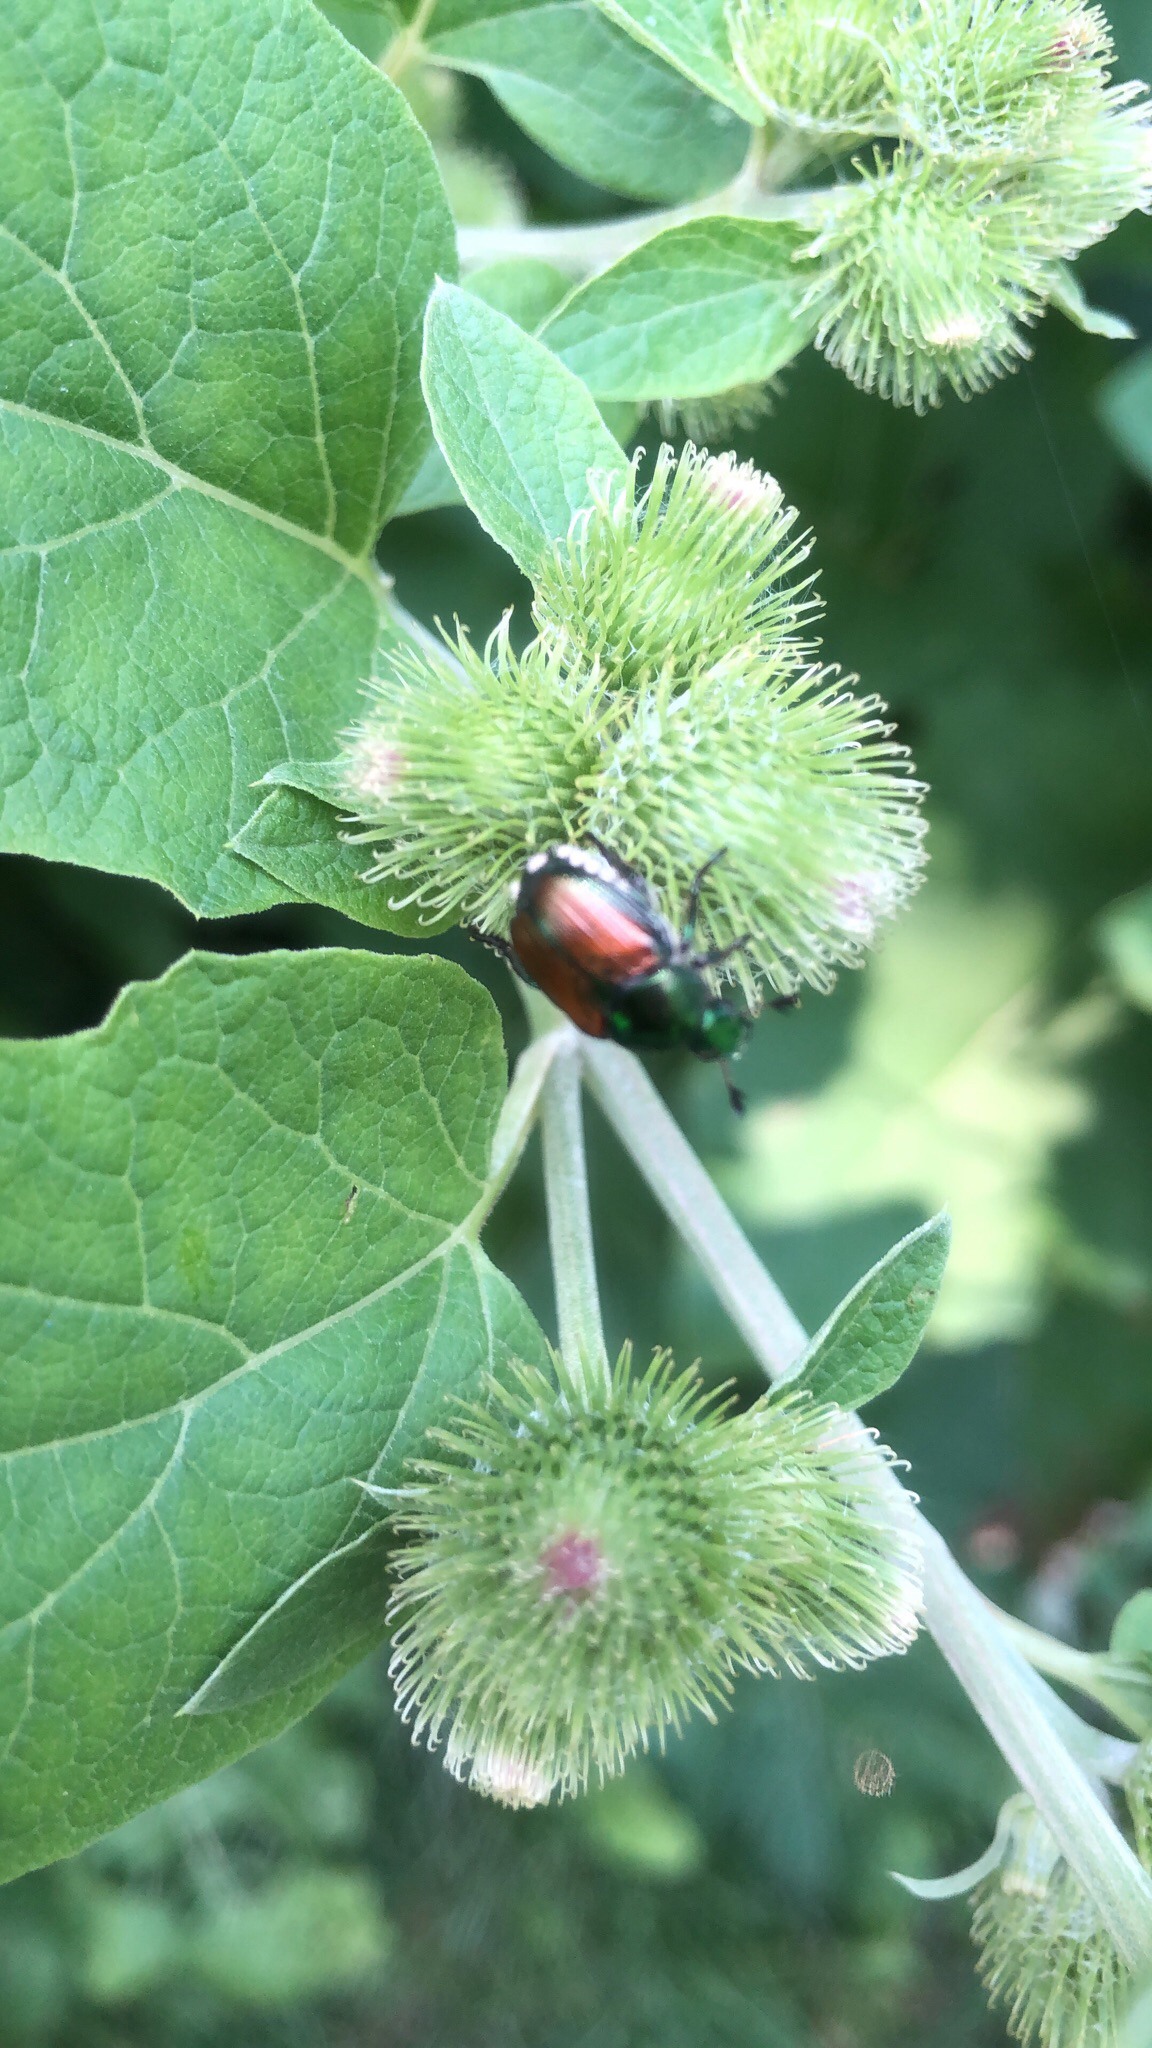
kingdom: Animalia
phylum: Arthropoda
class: Insecta
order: Coleoptera
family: Scarabaeidae
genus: Popillia
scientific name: Popillia japonica
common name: Japanese beetle
